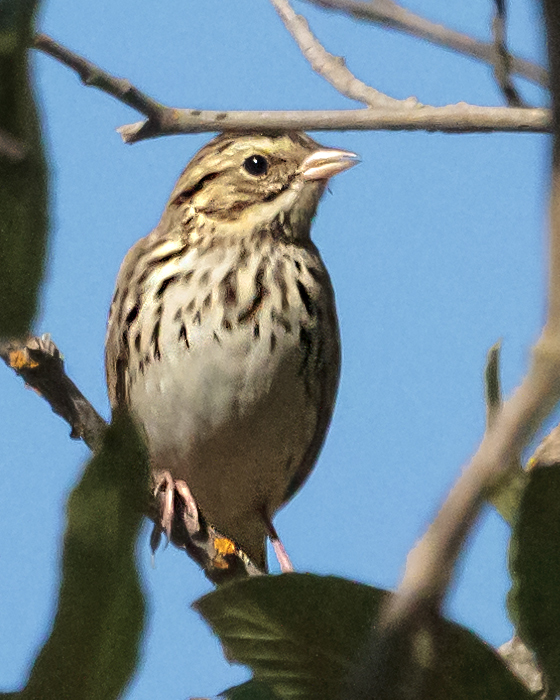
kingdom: Animalia
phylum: Chordata
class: Aves
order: Passeriformes
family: Passerellidae
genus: Passerculus
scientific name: Passerculus sandwichensis
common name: Savannah sparrow
